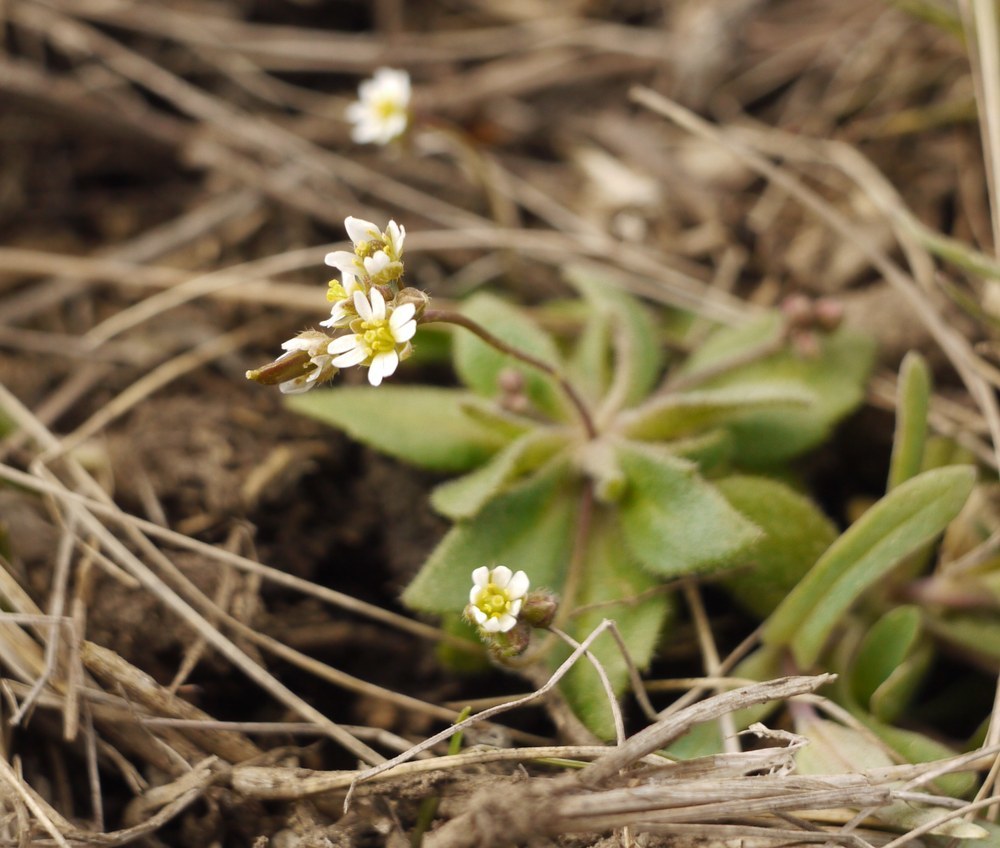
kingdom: Plantae
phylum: Tracheophyta
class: Magnoliopsida
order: Brassicales
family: Brassicaceae
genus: Draba
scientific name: Draba verna
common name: Spring draba
